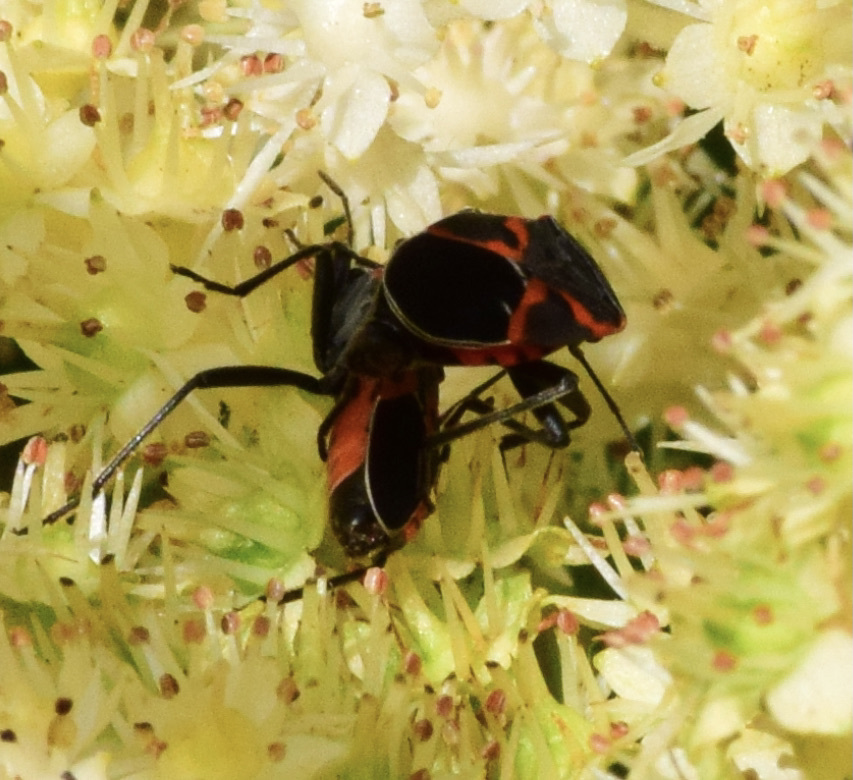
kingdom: Animalia
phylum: Arthropoda
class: Insecta
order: Hemiptera
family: Lygaeidae
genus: Lygaeus
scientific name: Lygaeus kalmii
